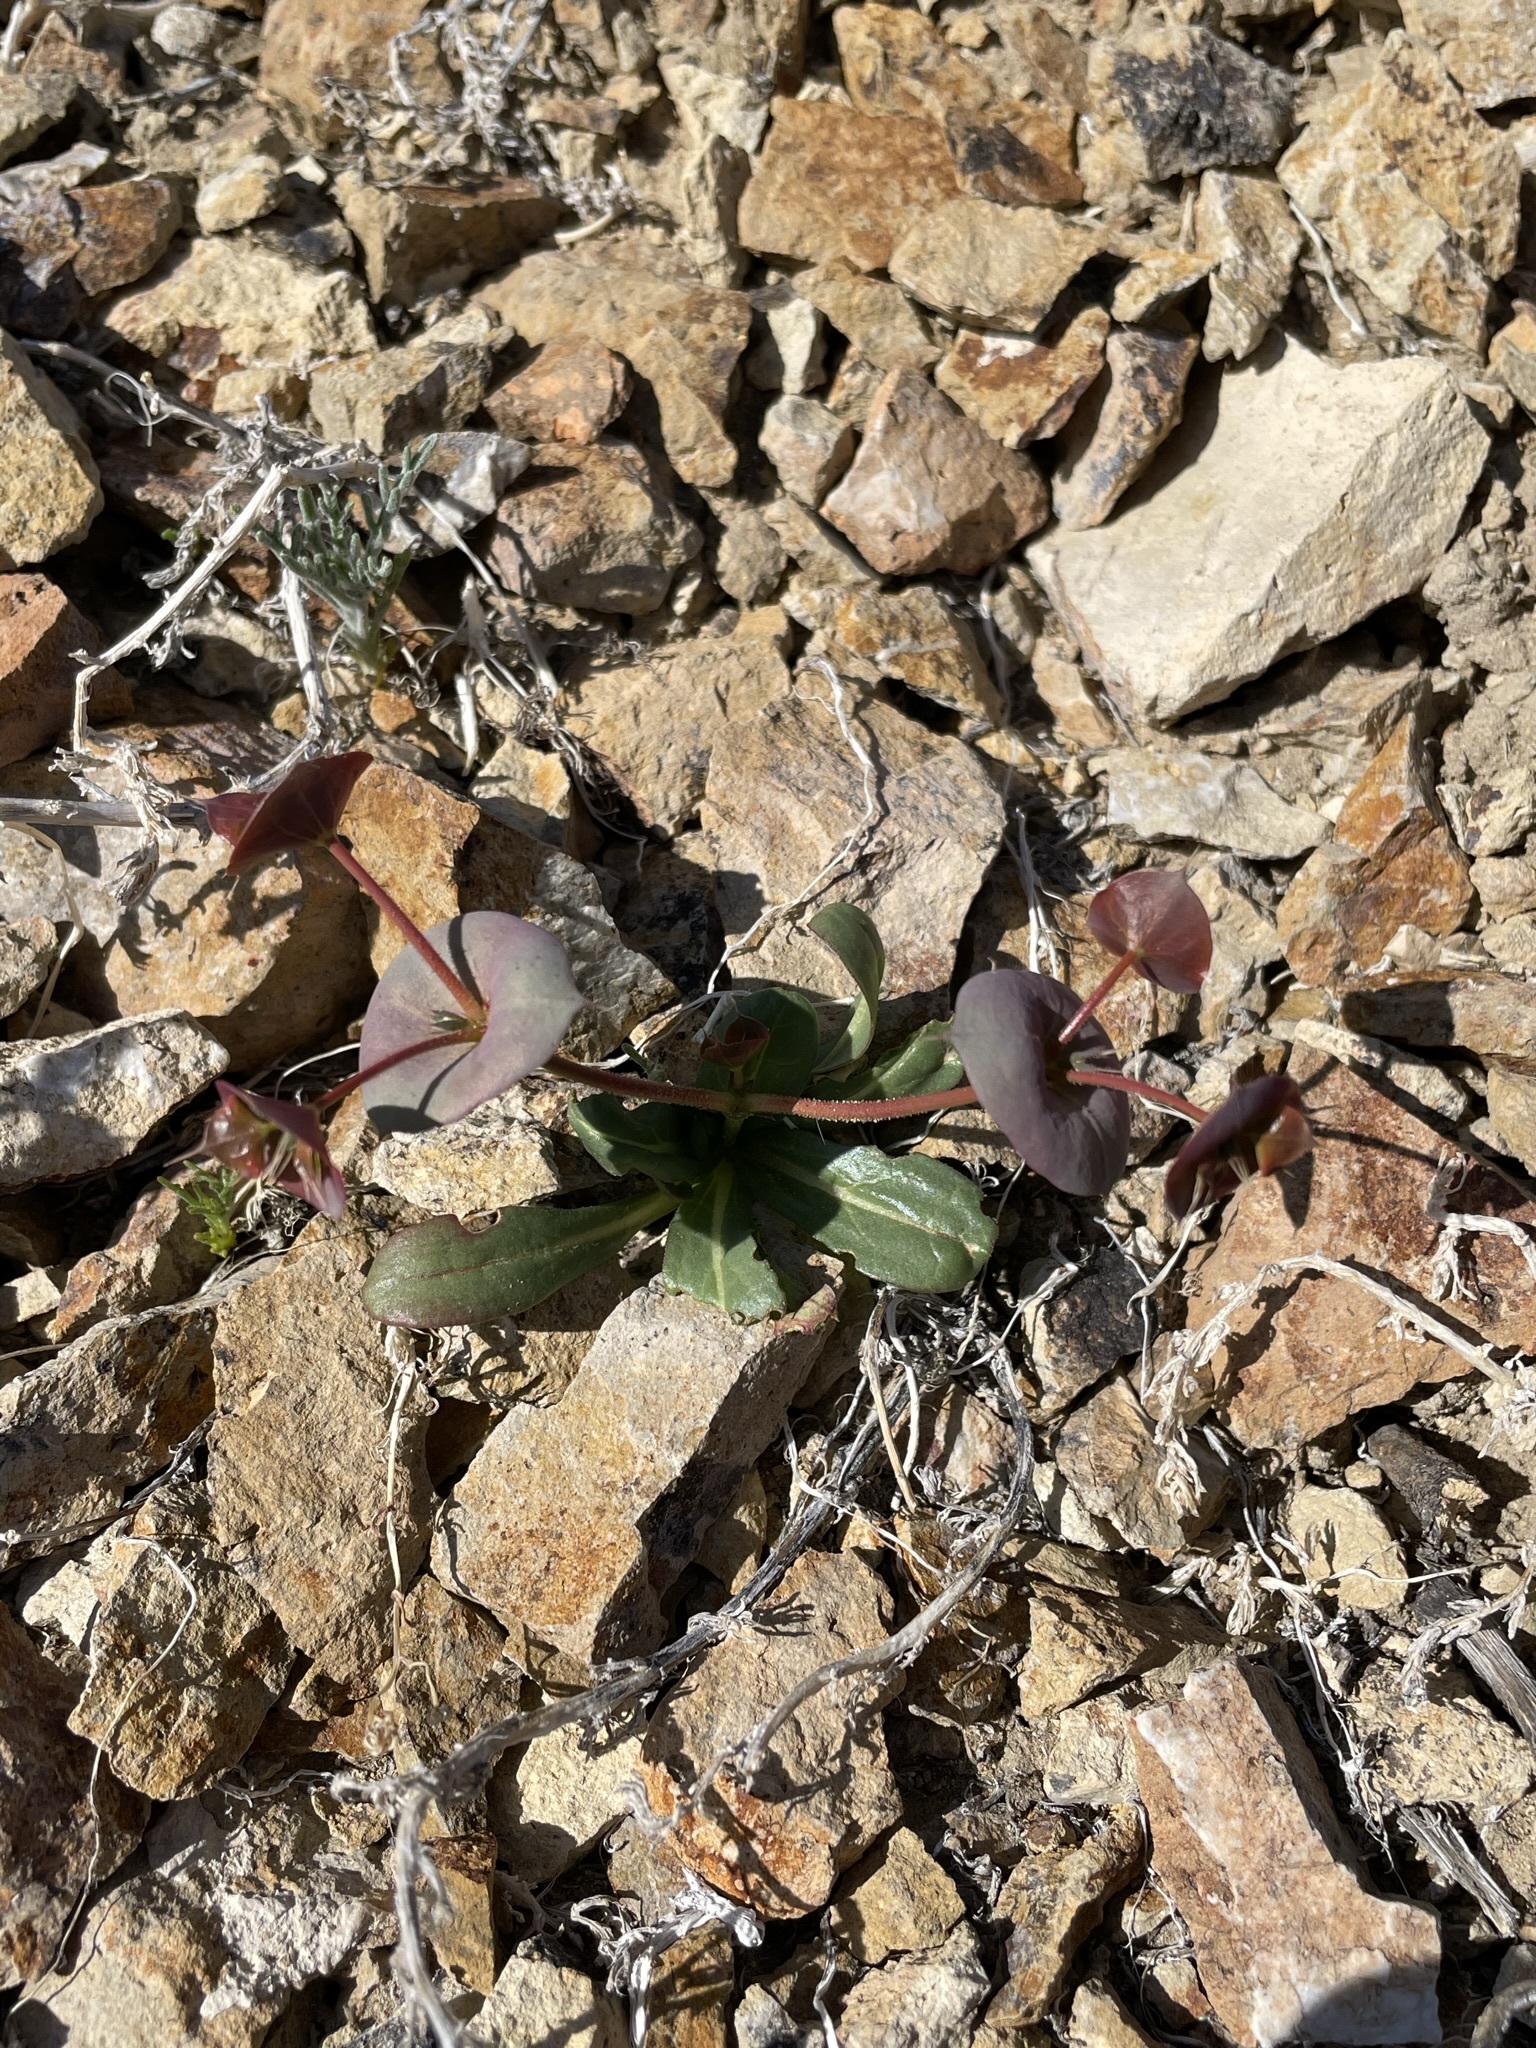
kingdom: Plantae
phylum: Tracheophyta
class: Magnoliopsida
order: Caryophyllales
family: Polygonaceae
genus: Oxytheca
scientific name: Oxytheca perfoliata
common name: Round-leaf puncturebract
